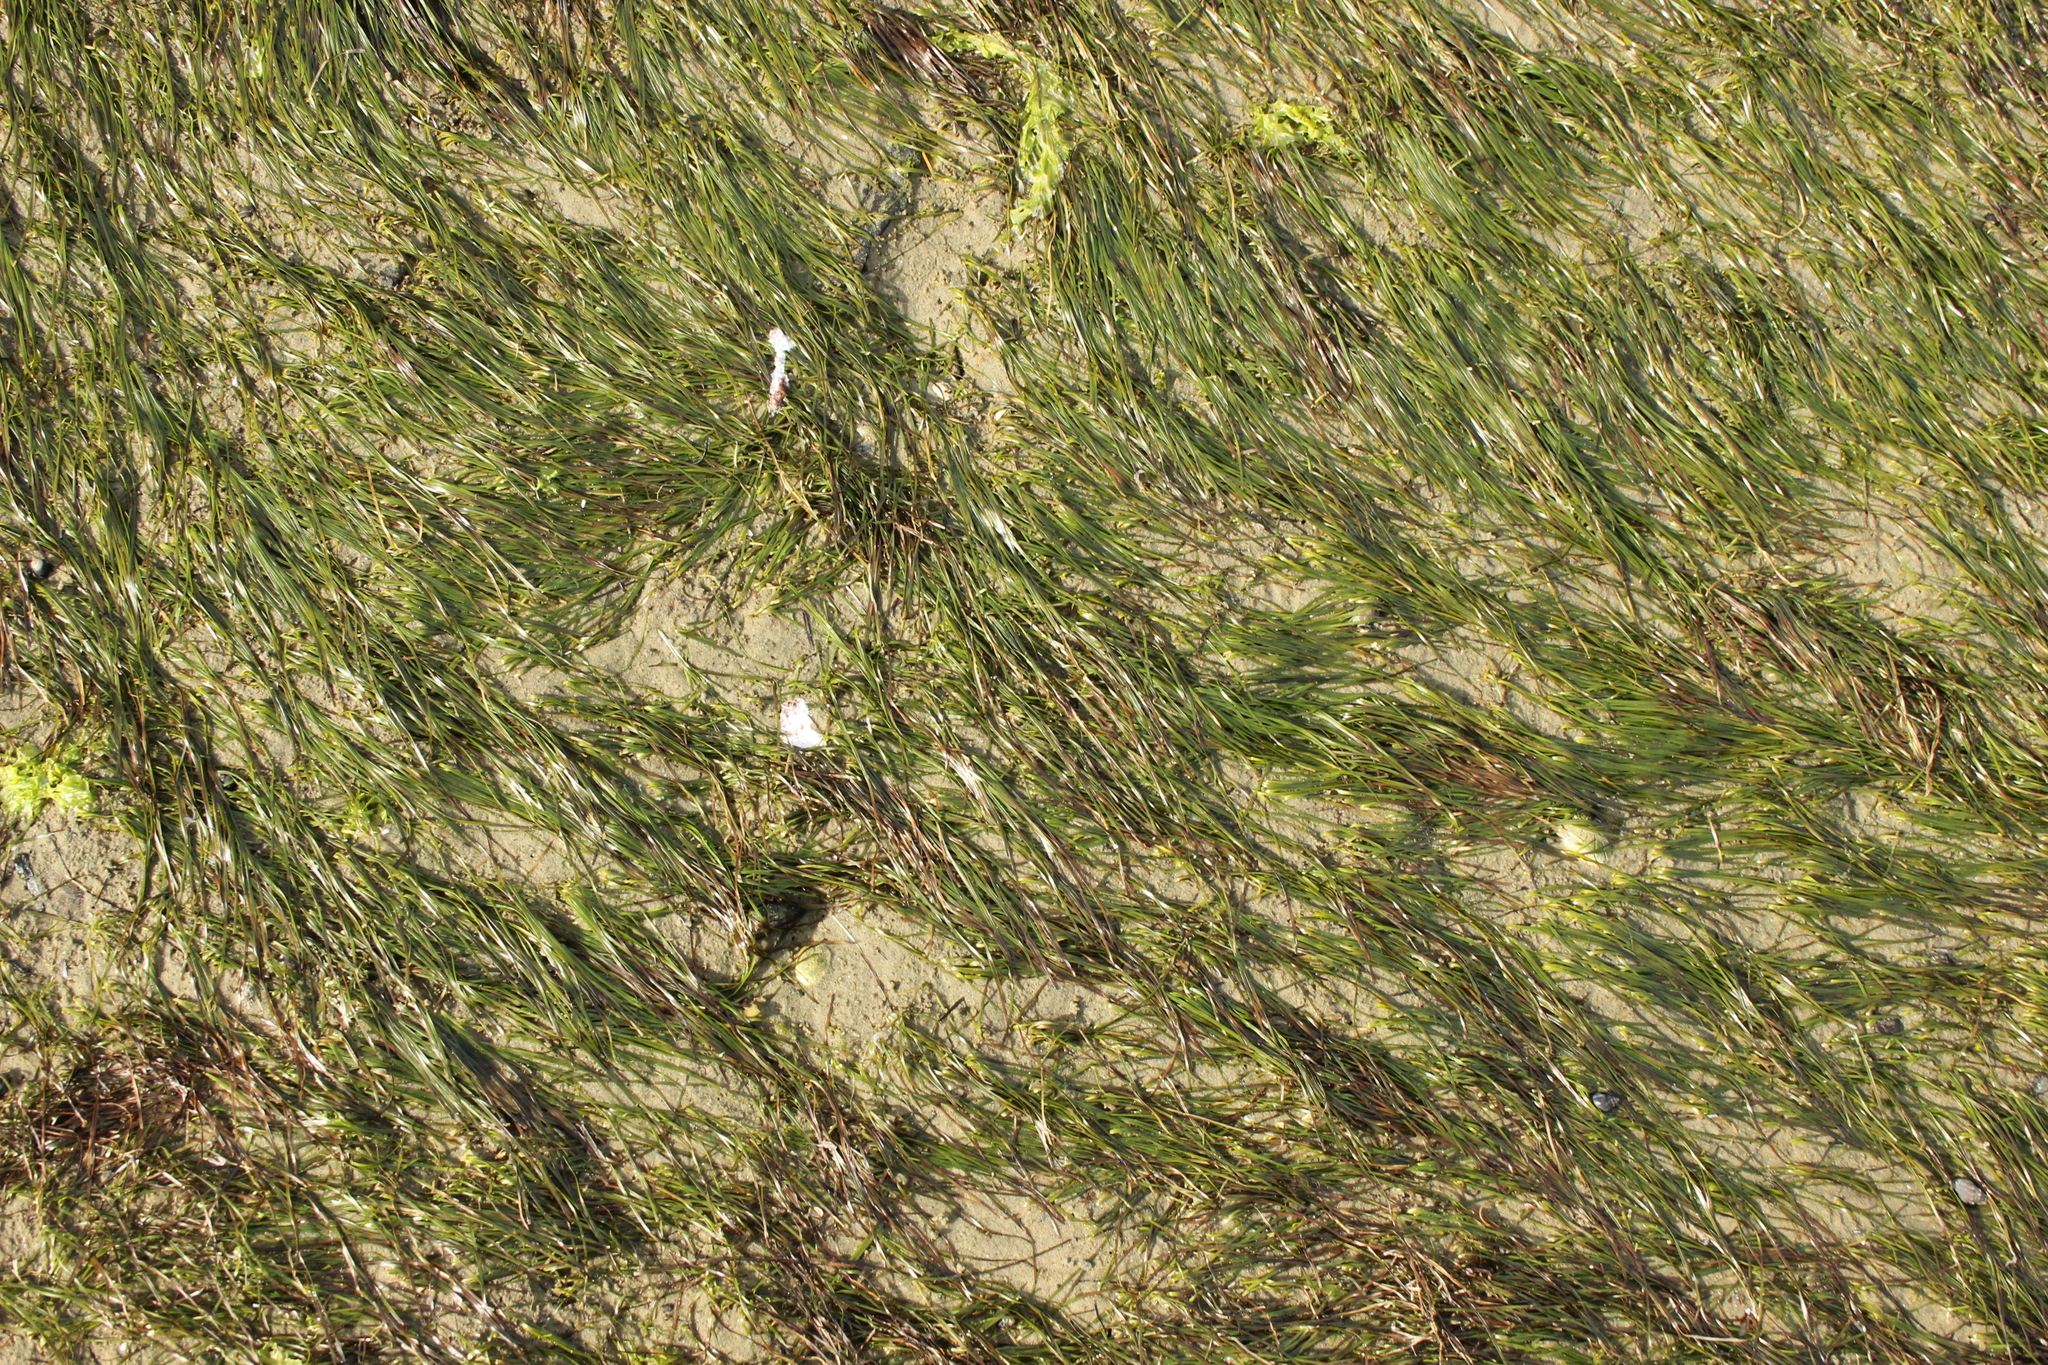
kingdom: Plantae
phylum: Tracheophyta
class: Liliopsida
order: Alismatales
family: Zosteraceae
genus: Zostera
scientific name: Zostera novazelandica
